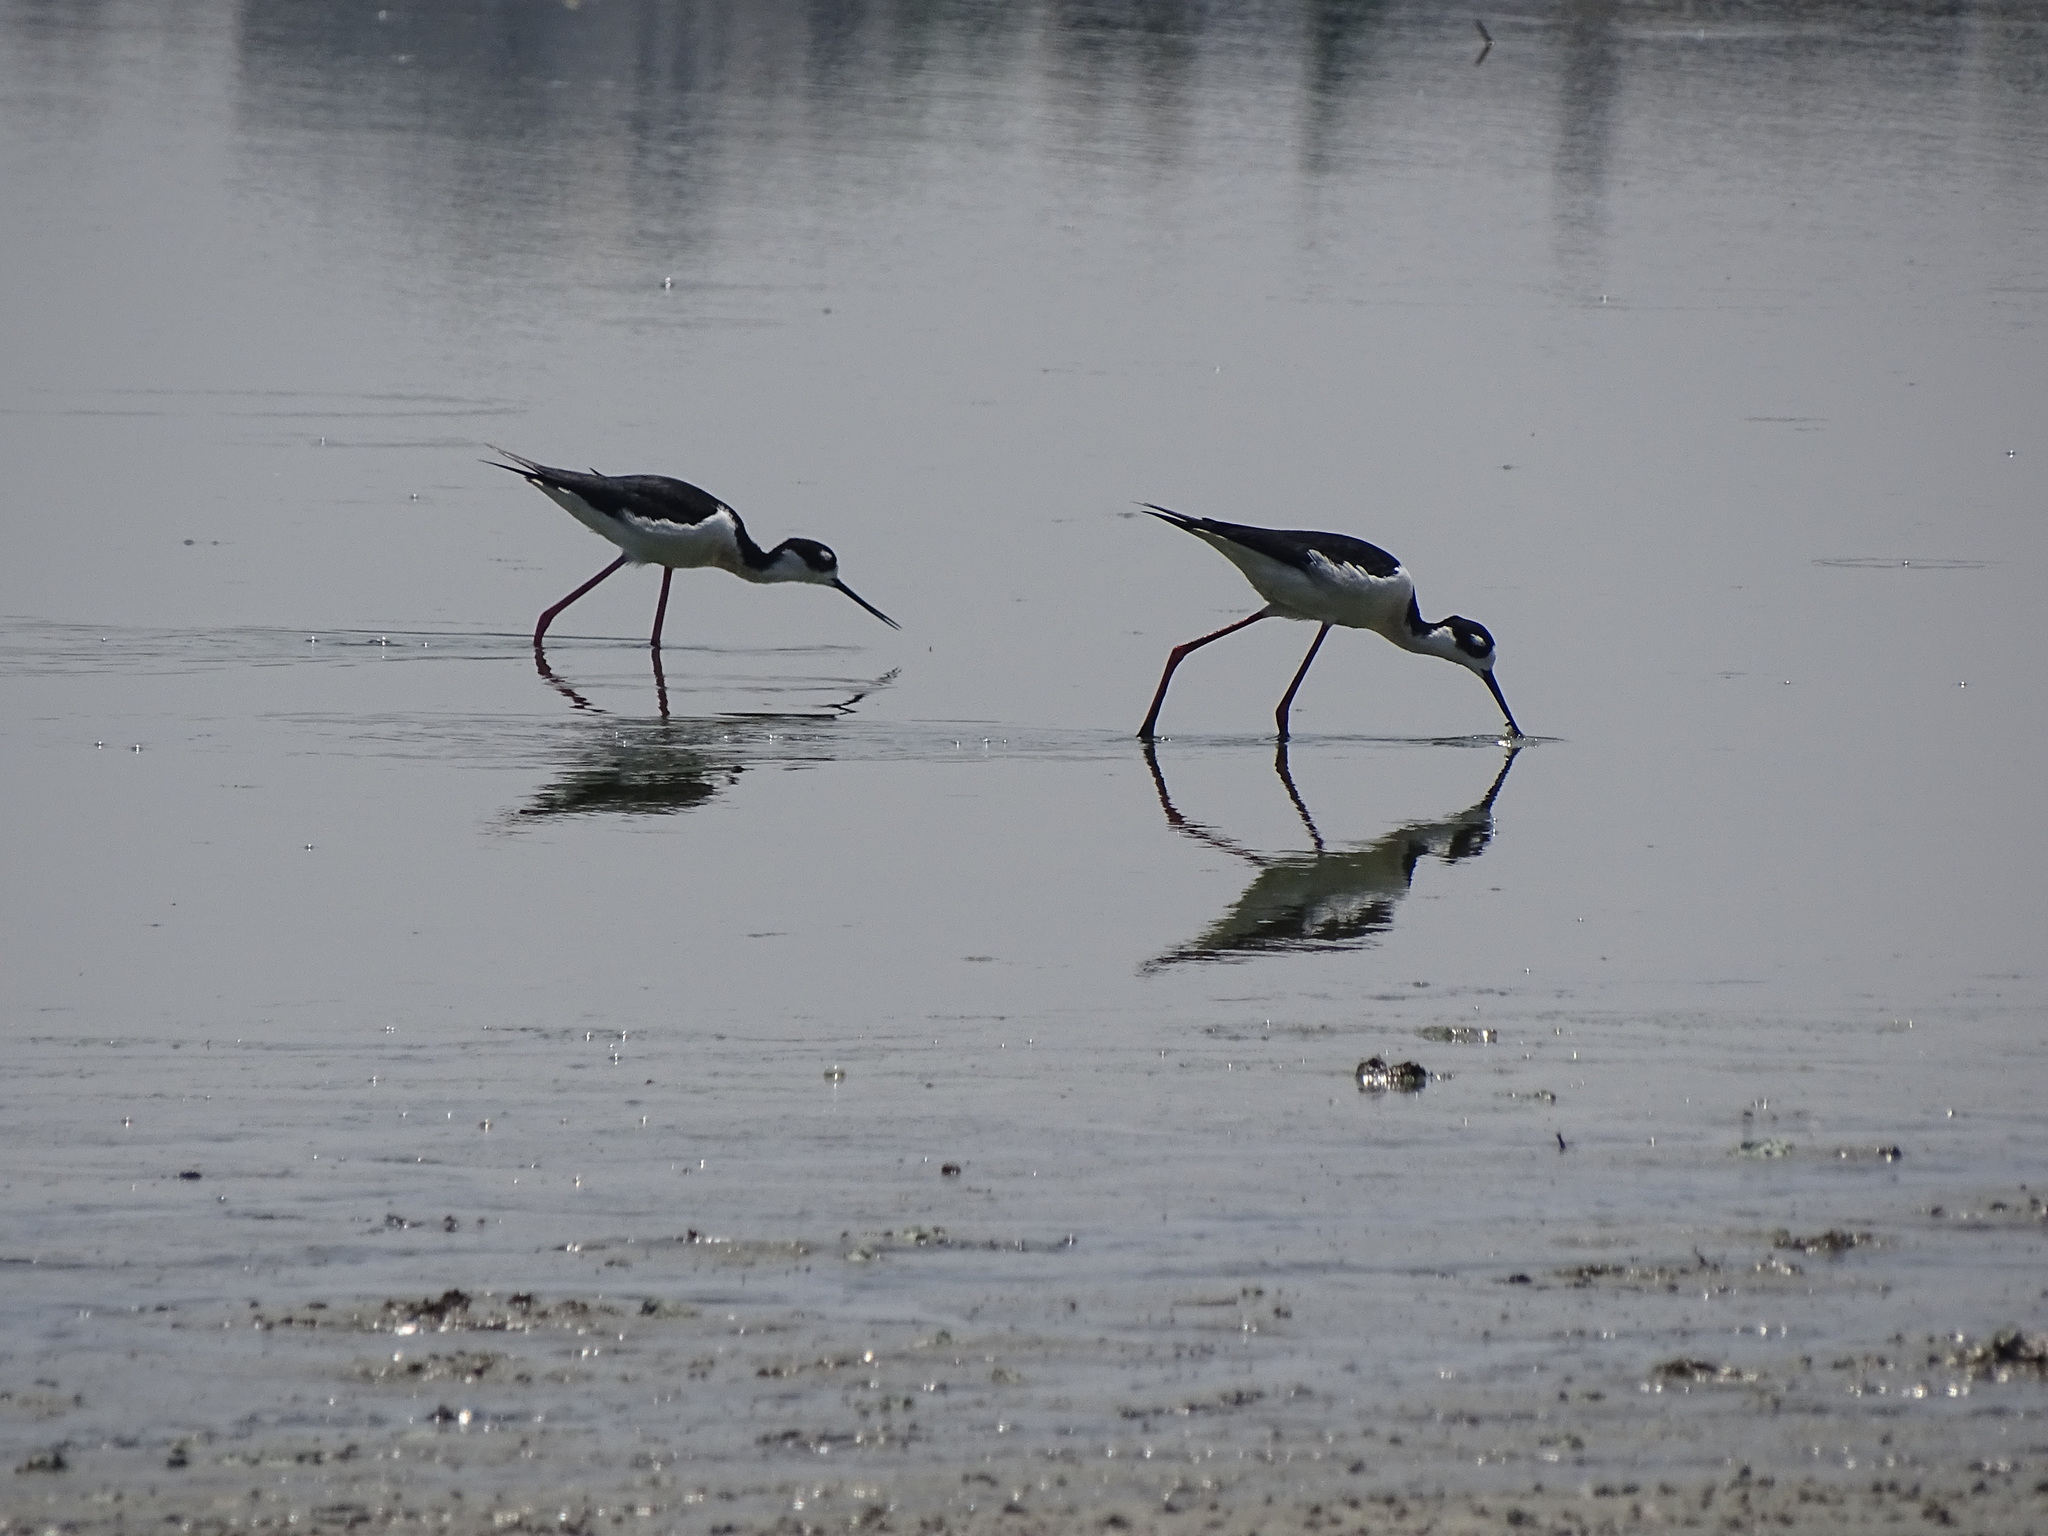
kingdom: Animalia
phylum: Chordata
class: Aves
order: Charadriiformes
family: Recurvirostridae
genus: Himantopus
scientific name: Himantopus mexicanus
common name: Black-necked stilt
